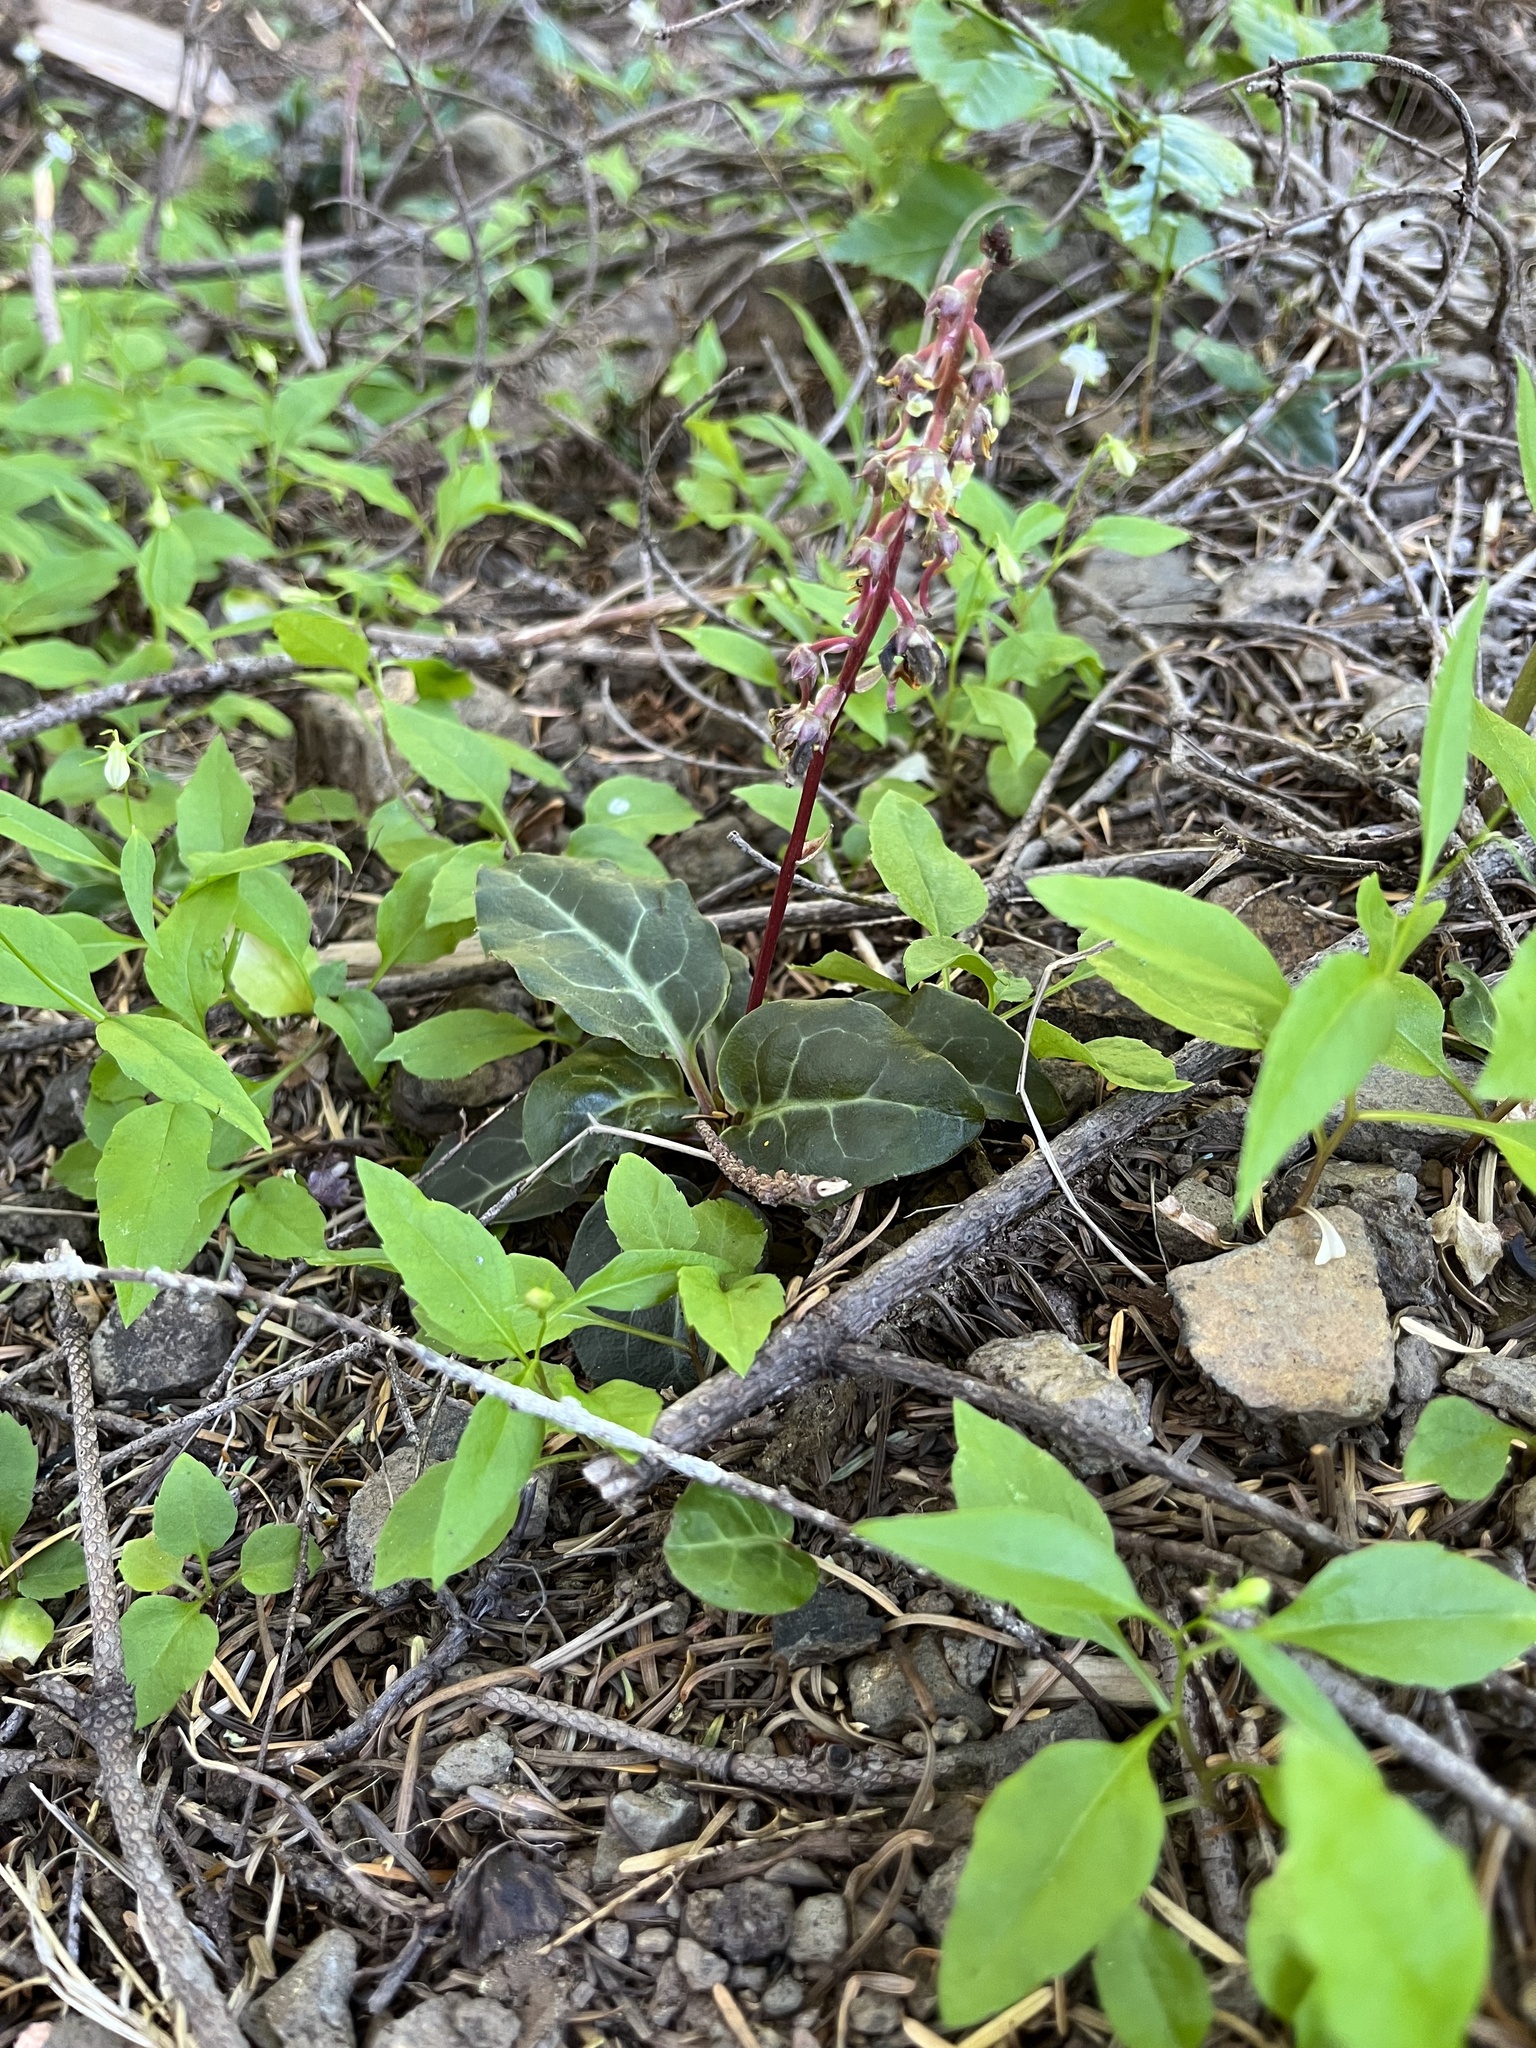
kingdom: Plantae
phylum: Tracheophyta
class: Magnoliopsida
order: Ericales
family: Ericaceae
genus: Pyrola
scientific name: Pyrola picta
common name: White-vein wintergreen
